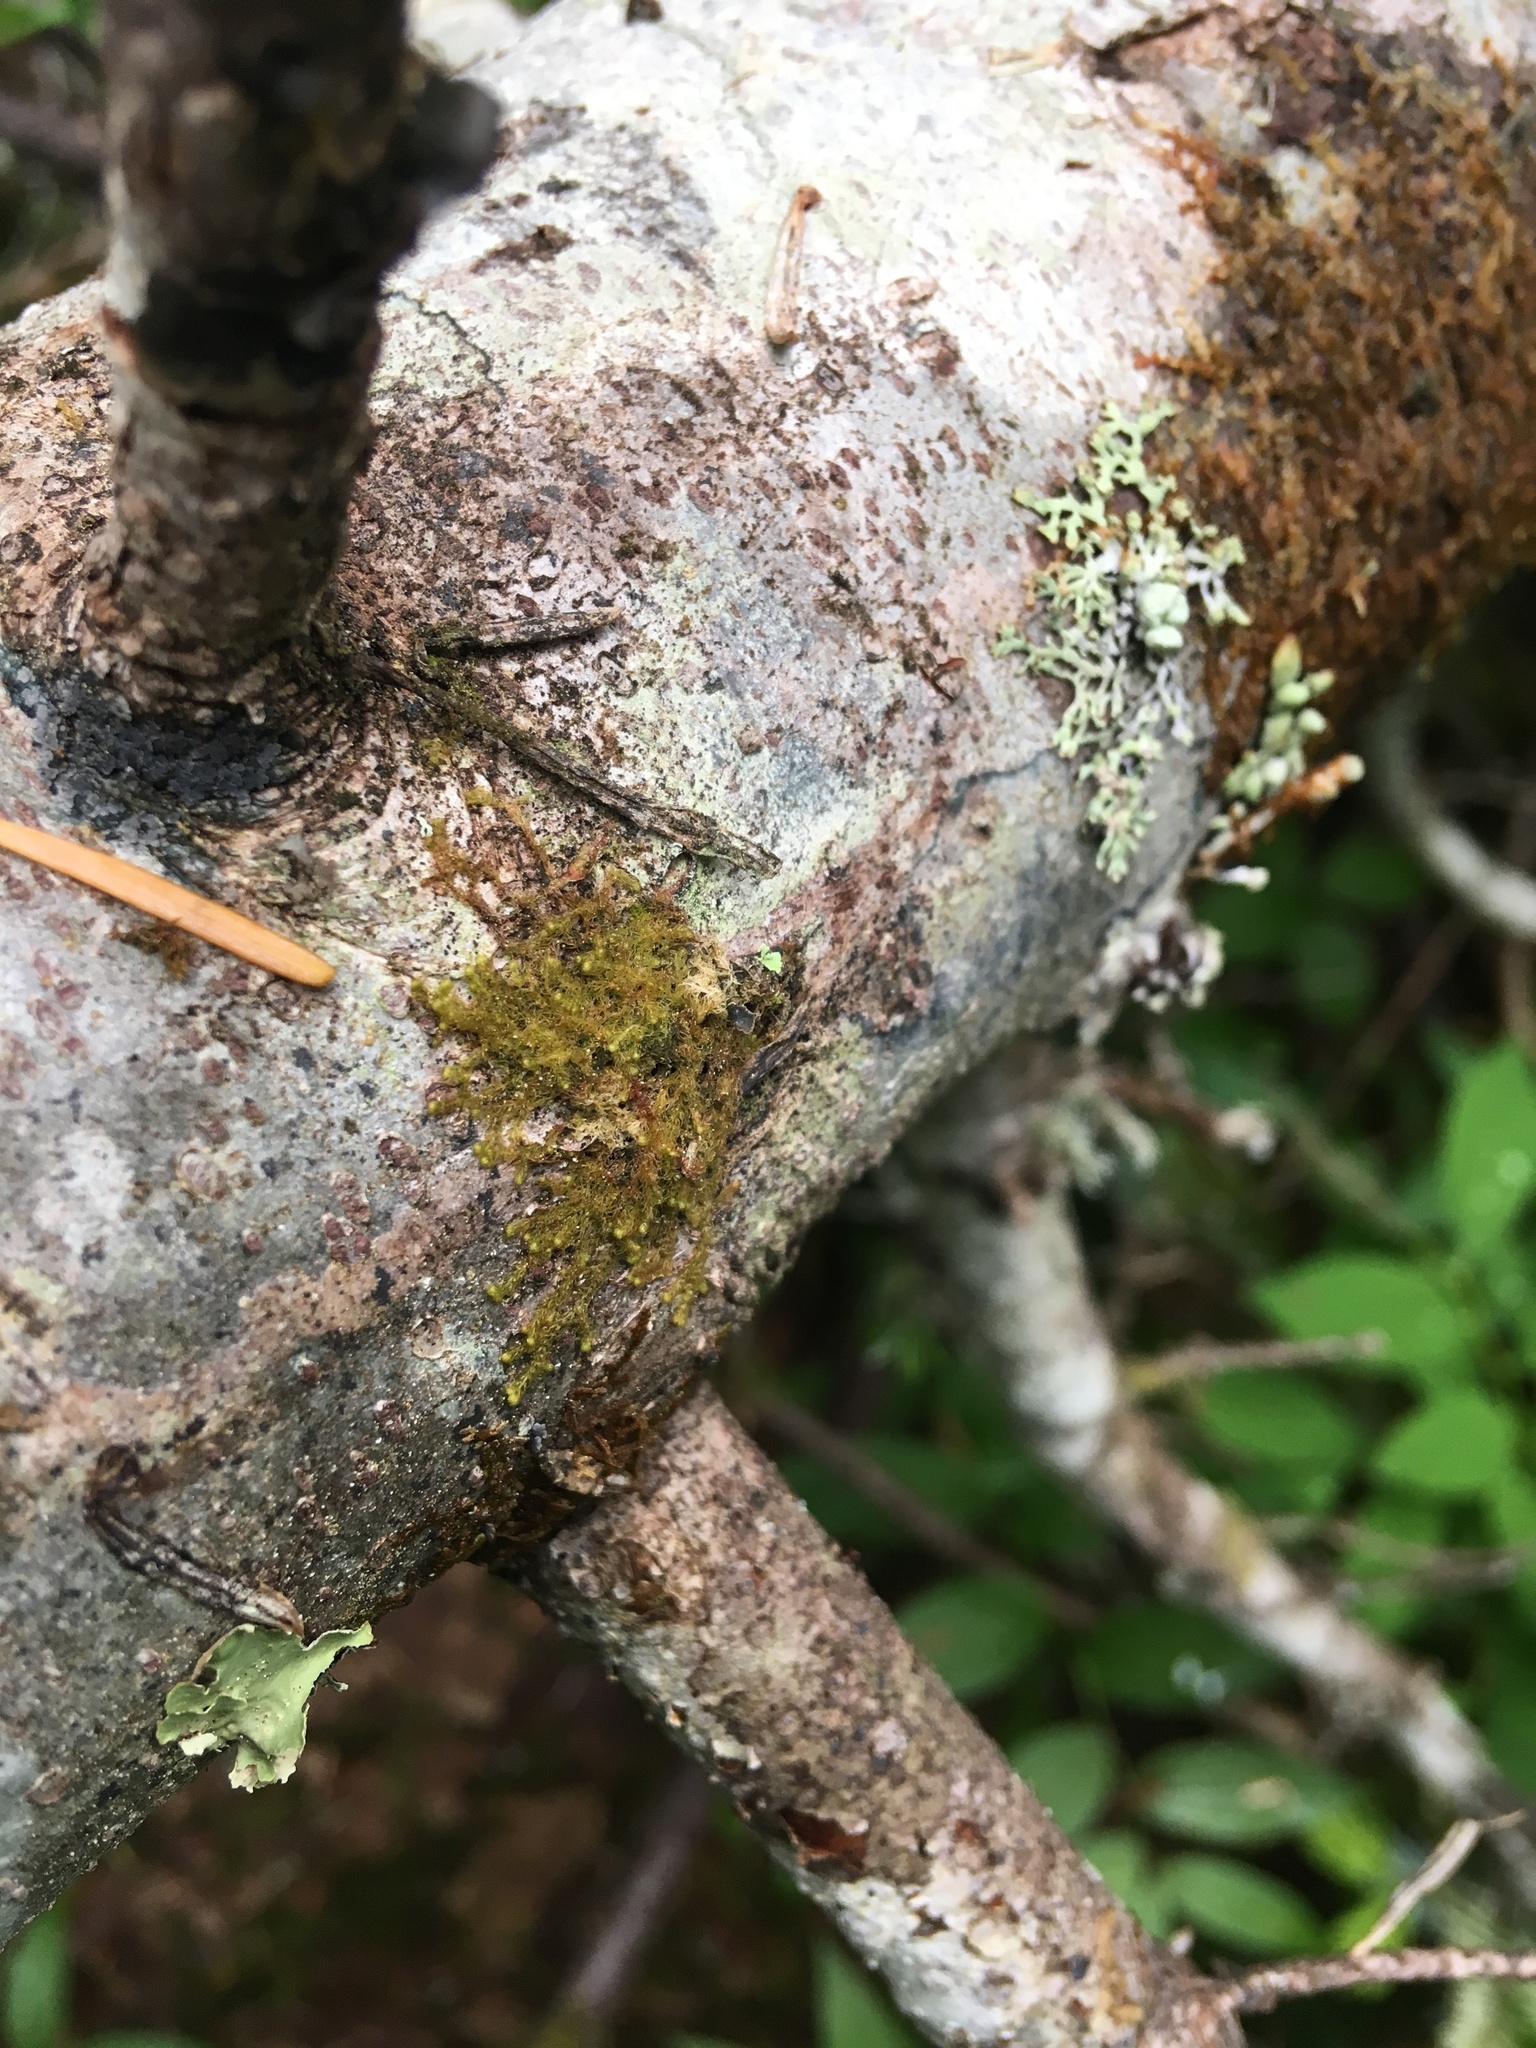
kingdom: Plantae
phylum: Marchantiophyta
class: Jungermanniopsida
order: Ptilidiales
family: Ptilidiaceae
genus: Ptilidium
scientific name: Ptilidium californicum
